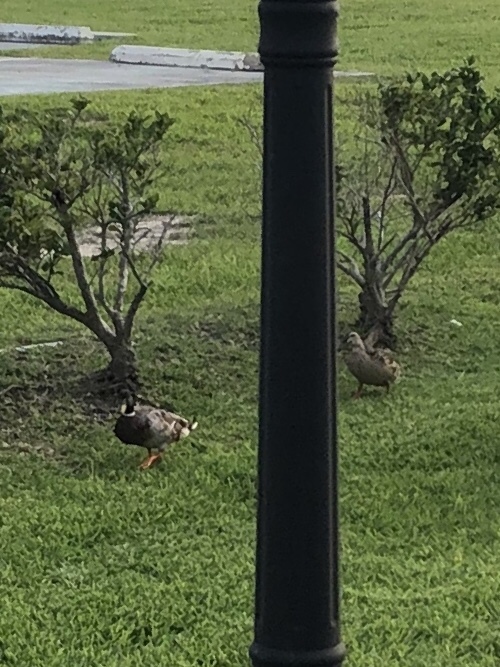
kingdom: Animalia
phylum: Chordata
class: Aves
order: Anseriformes
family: Anatidae
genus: Anas
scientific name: Anas platyrhynchos
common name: Mallard
